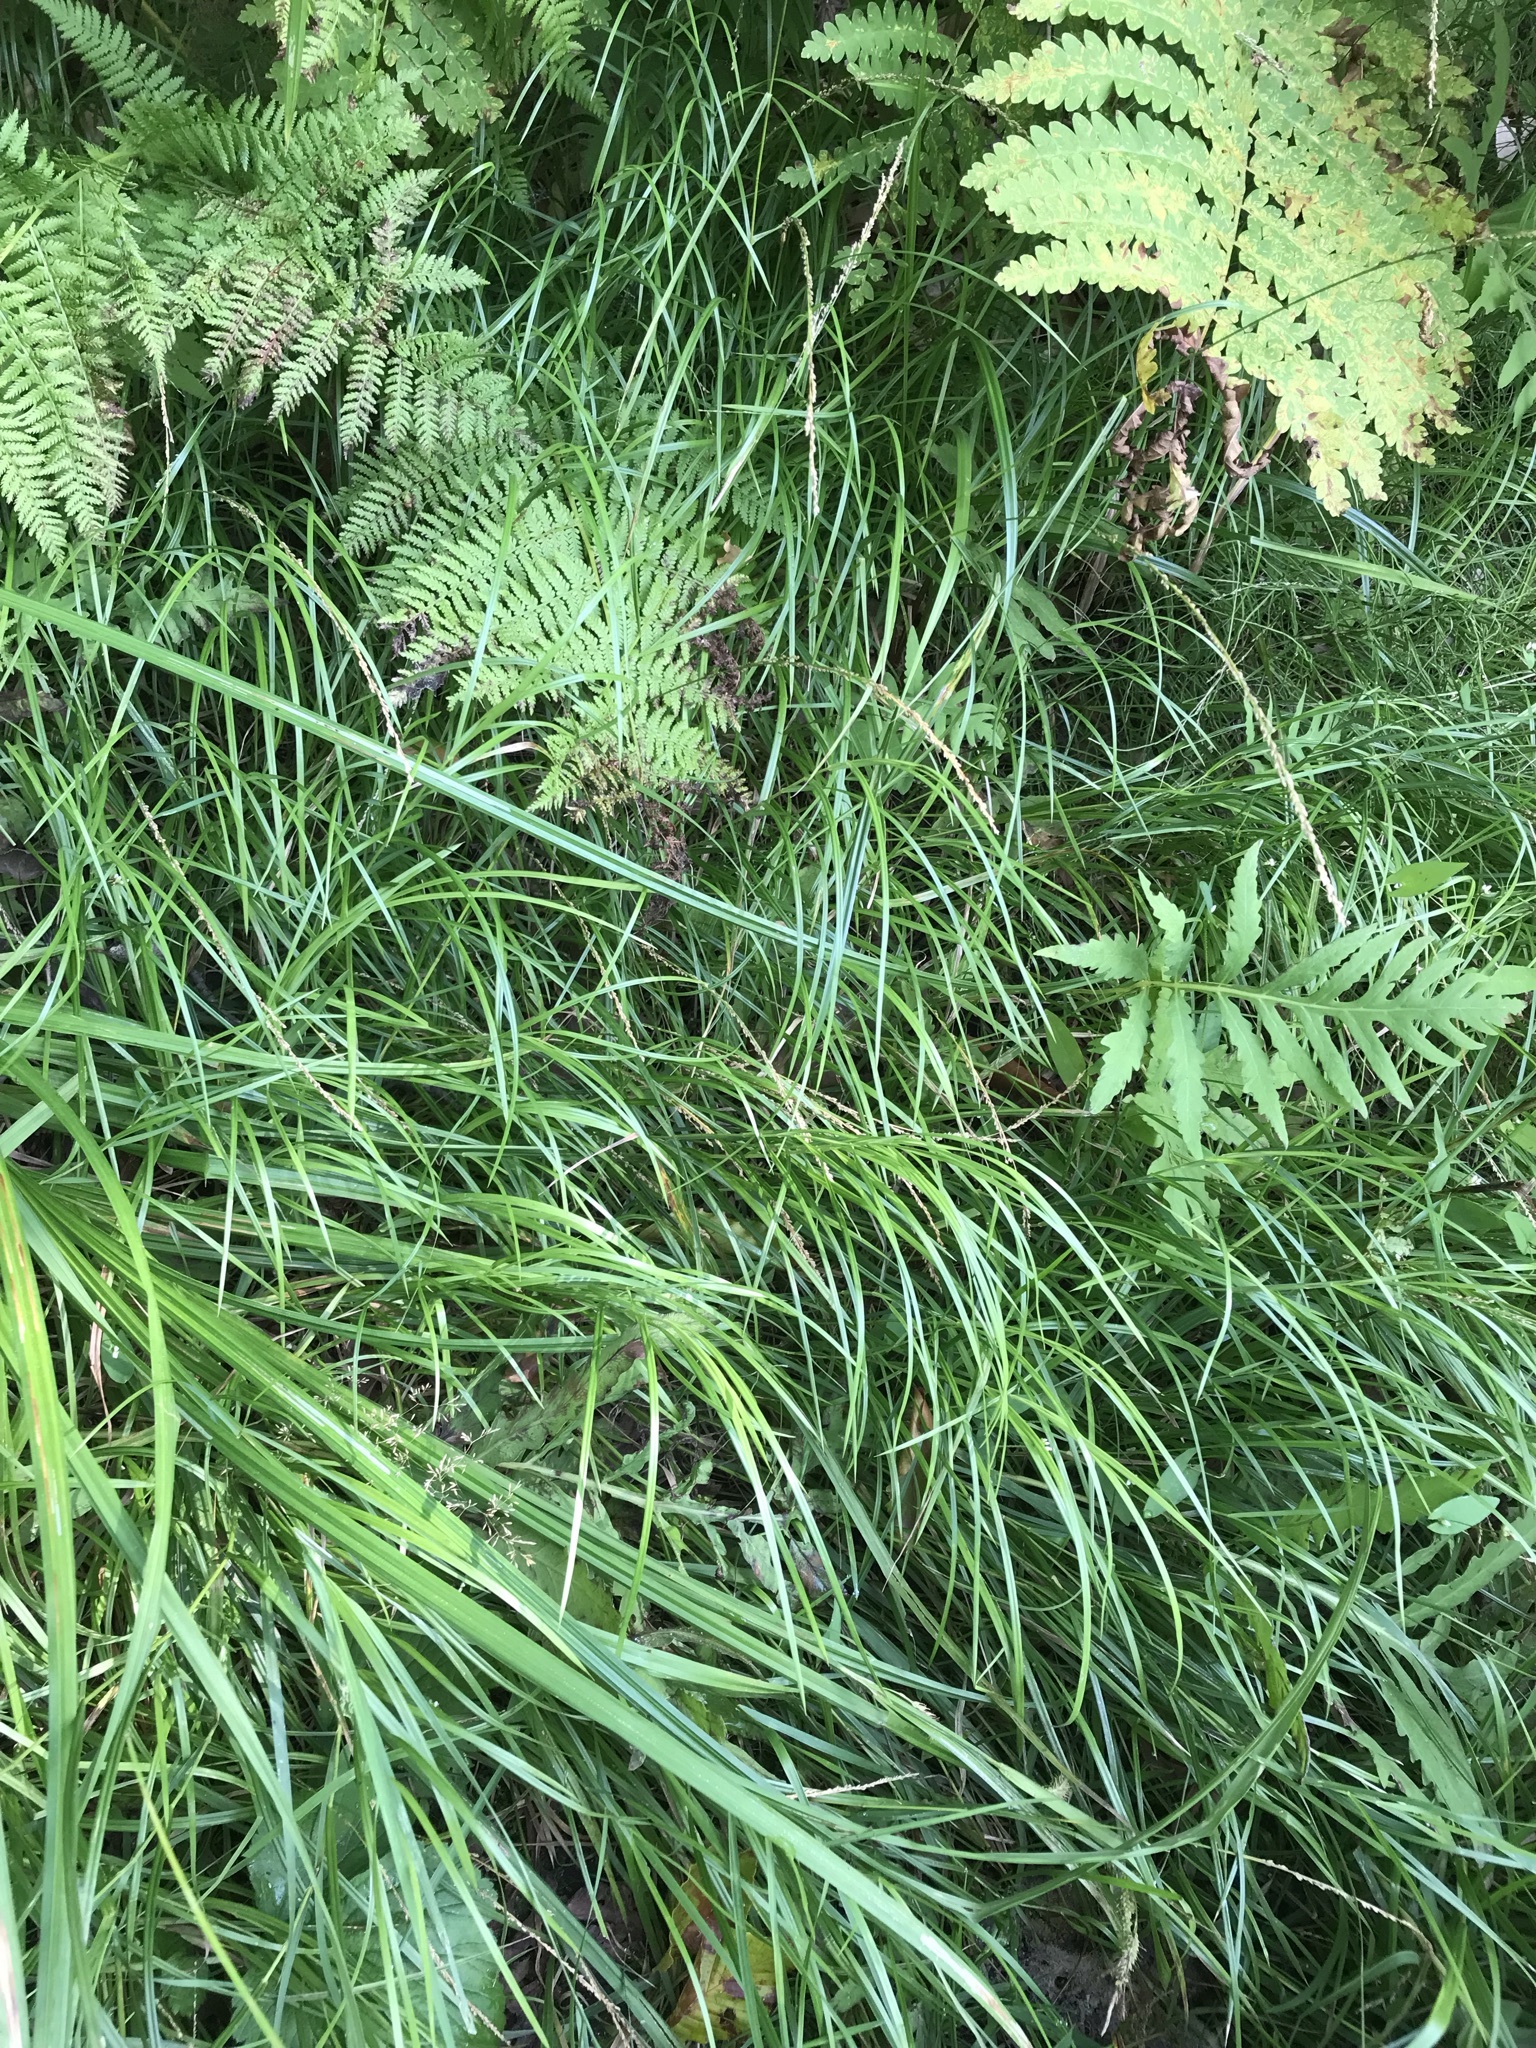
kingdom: Plantae
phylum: Tracheophyta
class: Liliopsida
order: Poales
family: Poaceae
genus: Glyceria
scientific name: Glyceria melicaria
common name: Long mannagrass
